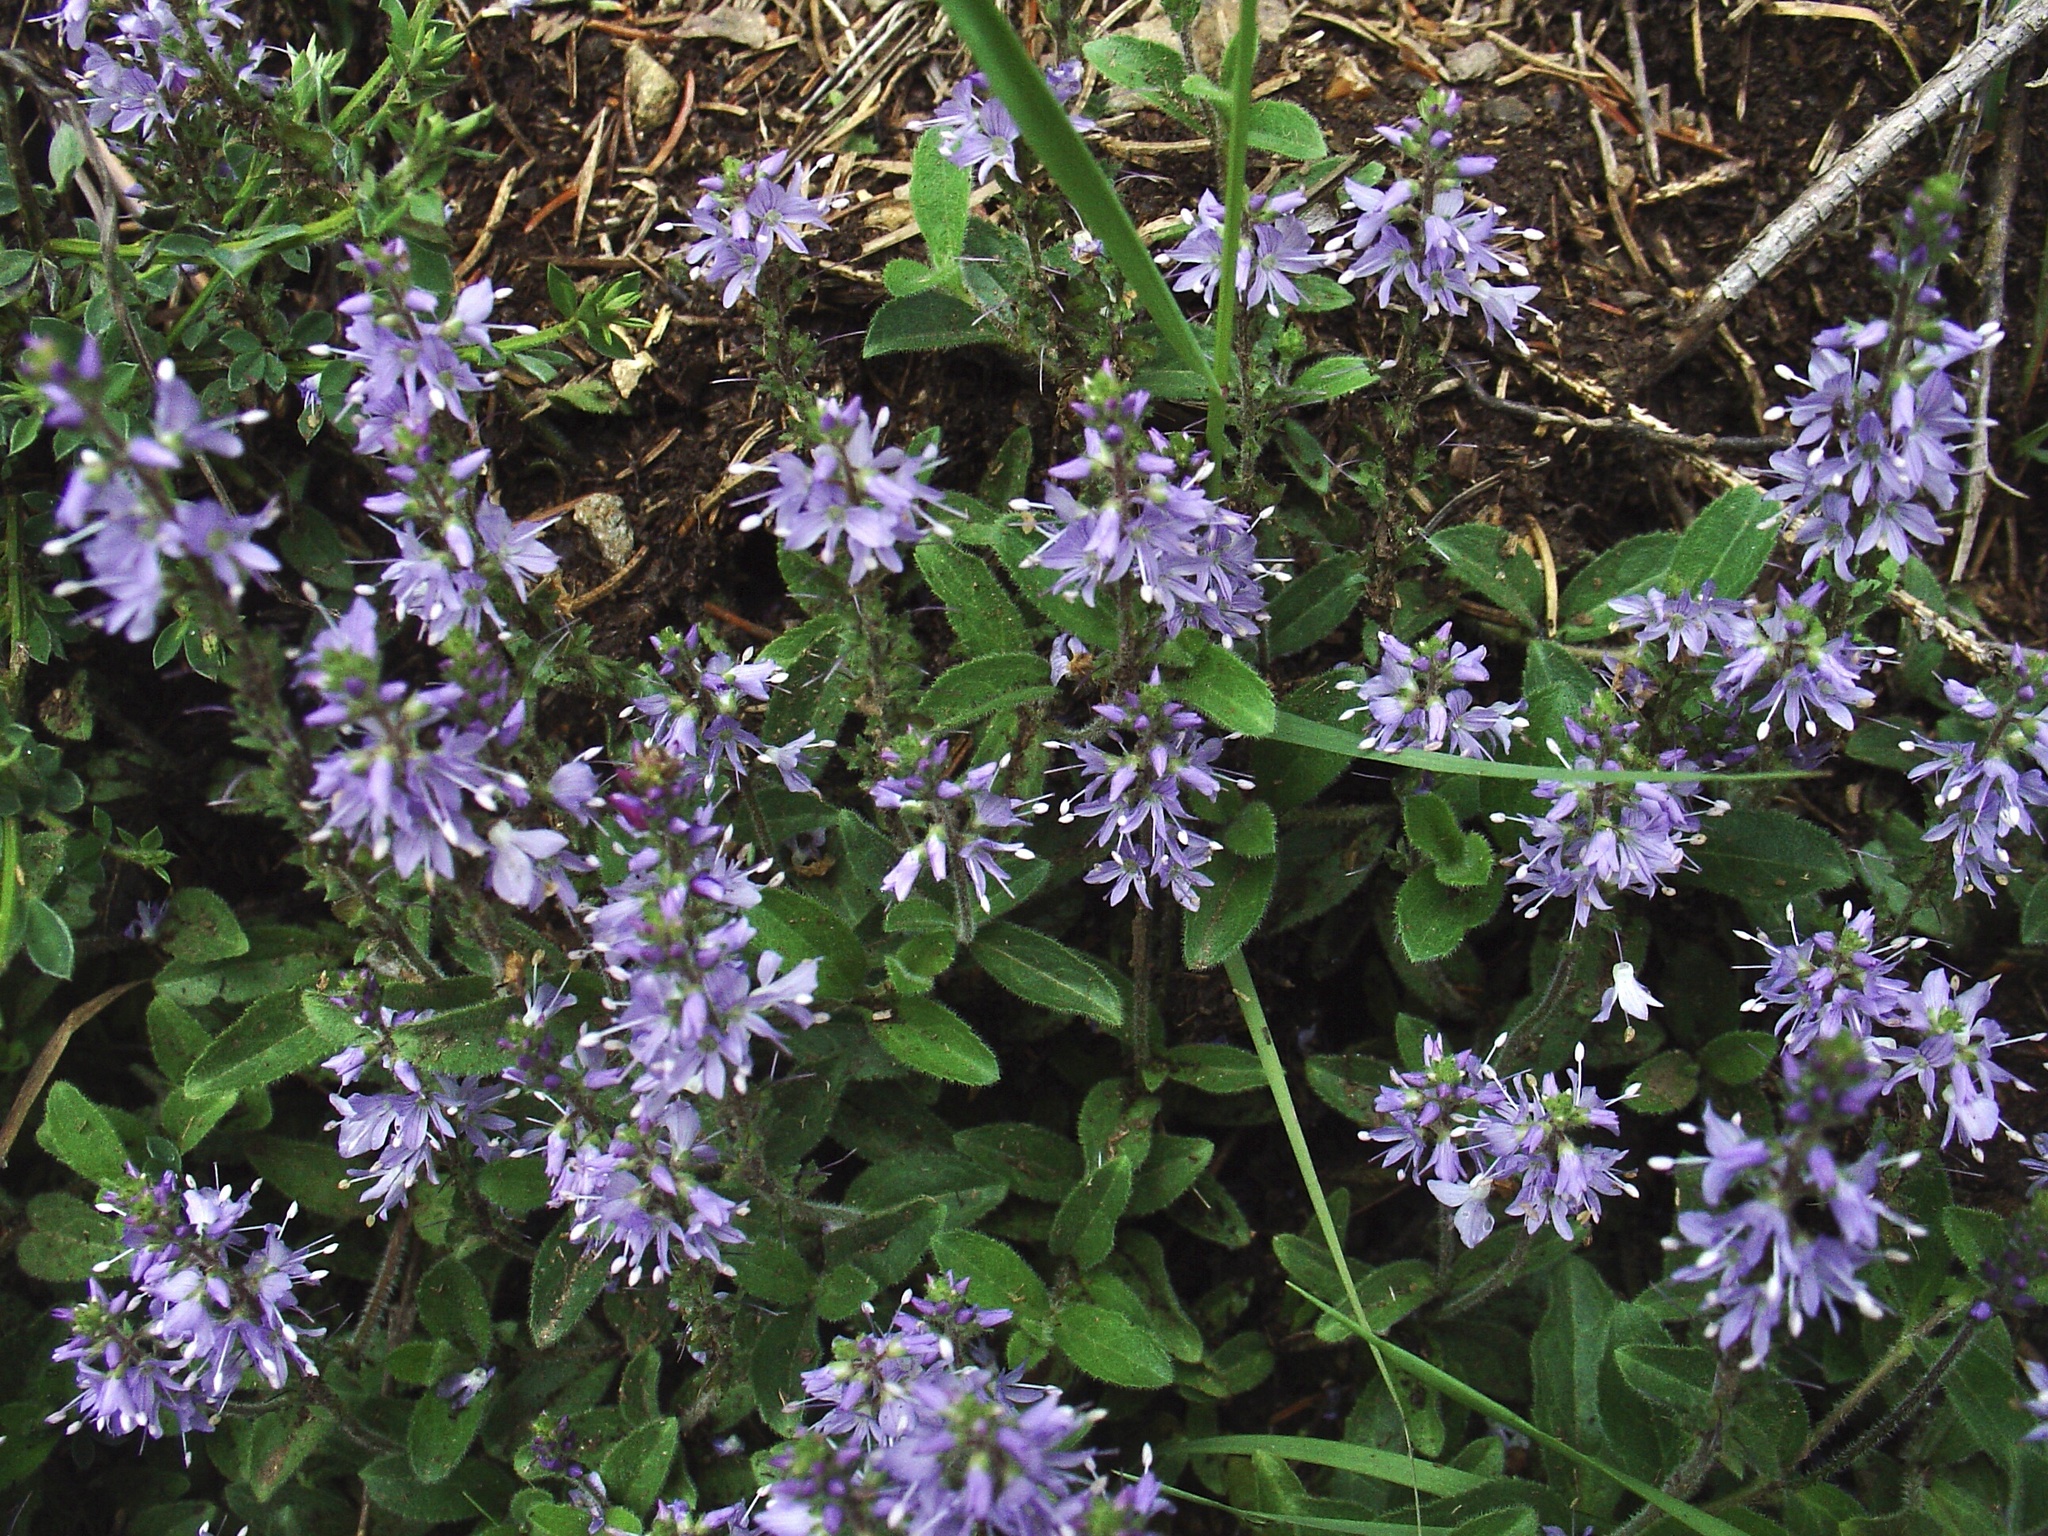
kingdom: Plantae
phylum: Tracheophyta
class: Magnoliopsida
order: Lamiales
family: Plantaginaceae
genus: Veronica
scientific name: Veronica officinalis
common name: Common speedwell
